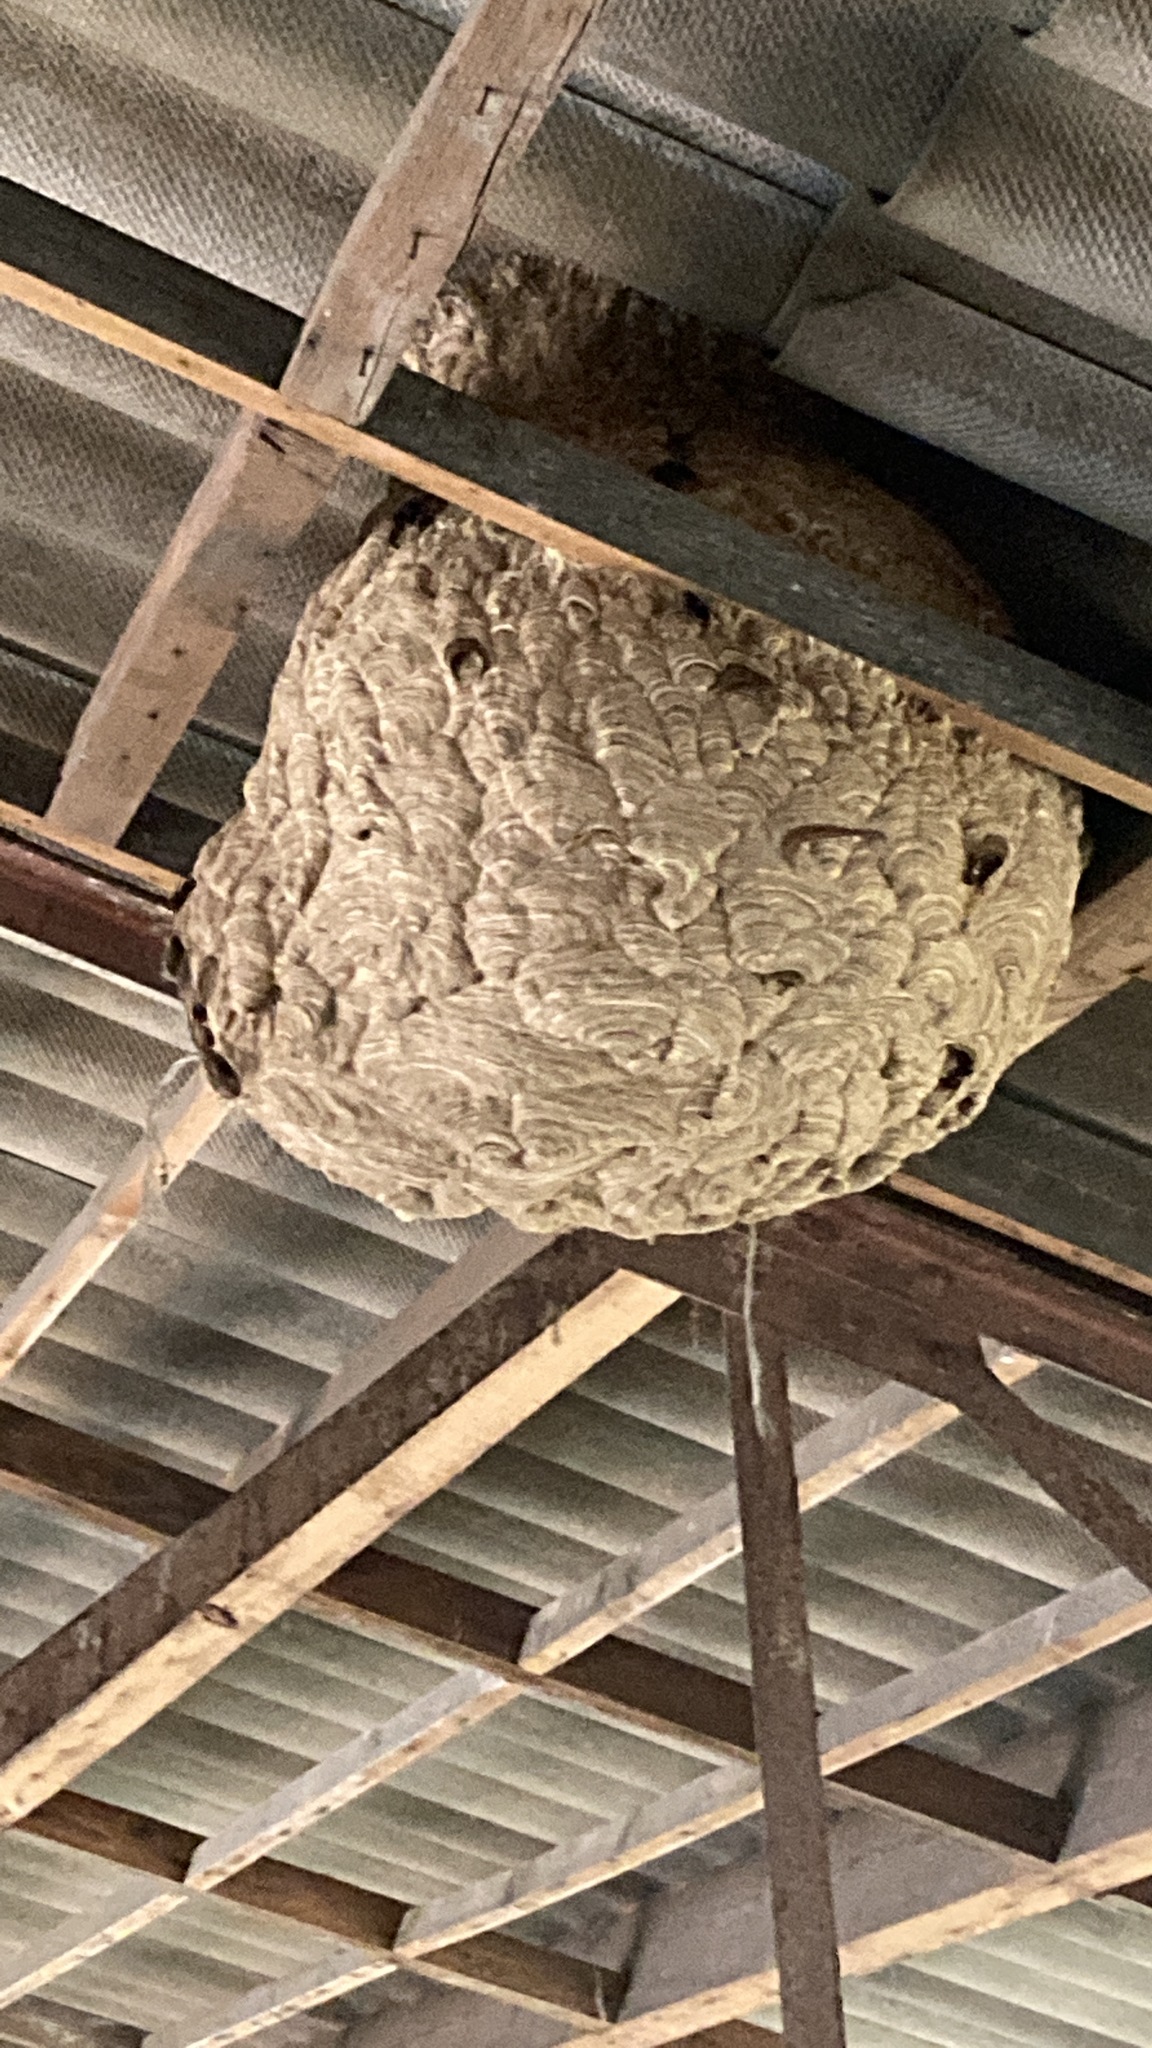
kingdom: Animalia
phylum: Arthropoda
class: Insecta
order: Hymenoptera
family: Vespidae
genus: Vespa
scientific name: Vespa velutina
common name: Asian hornet
